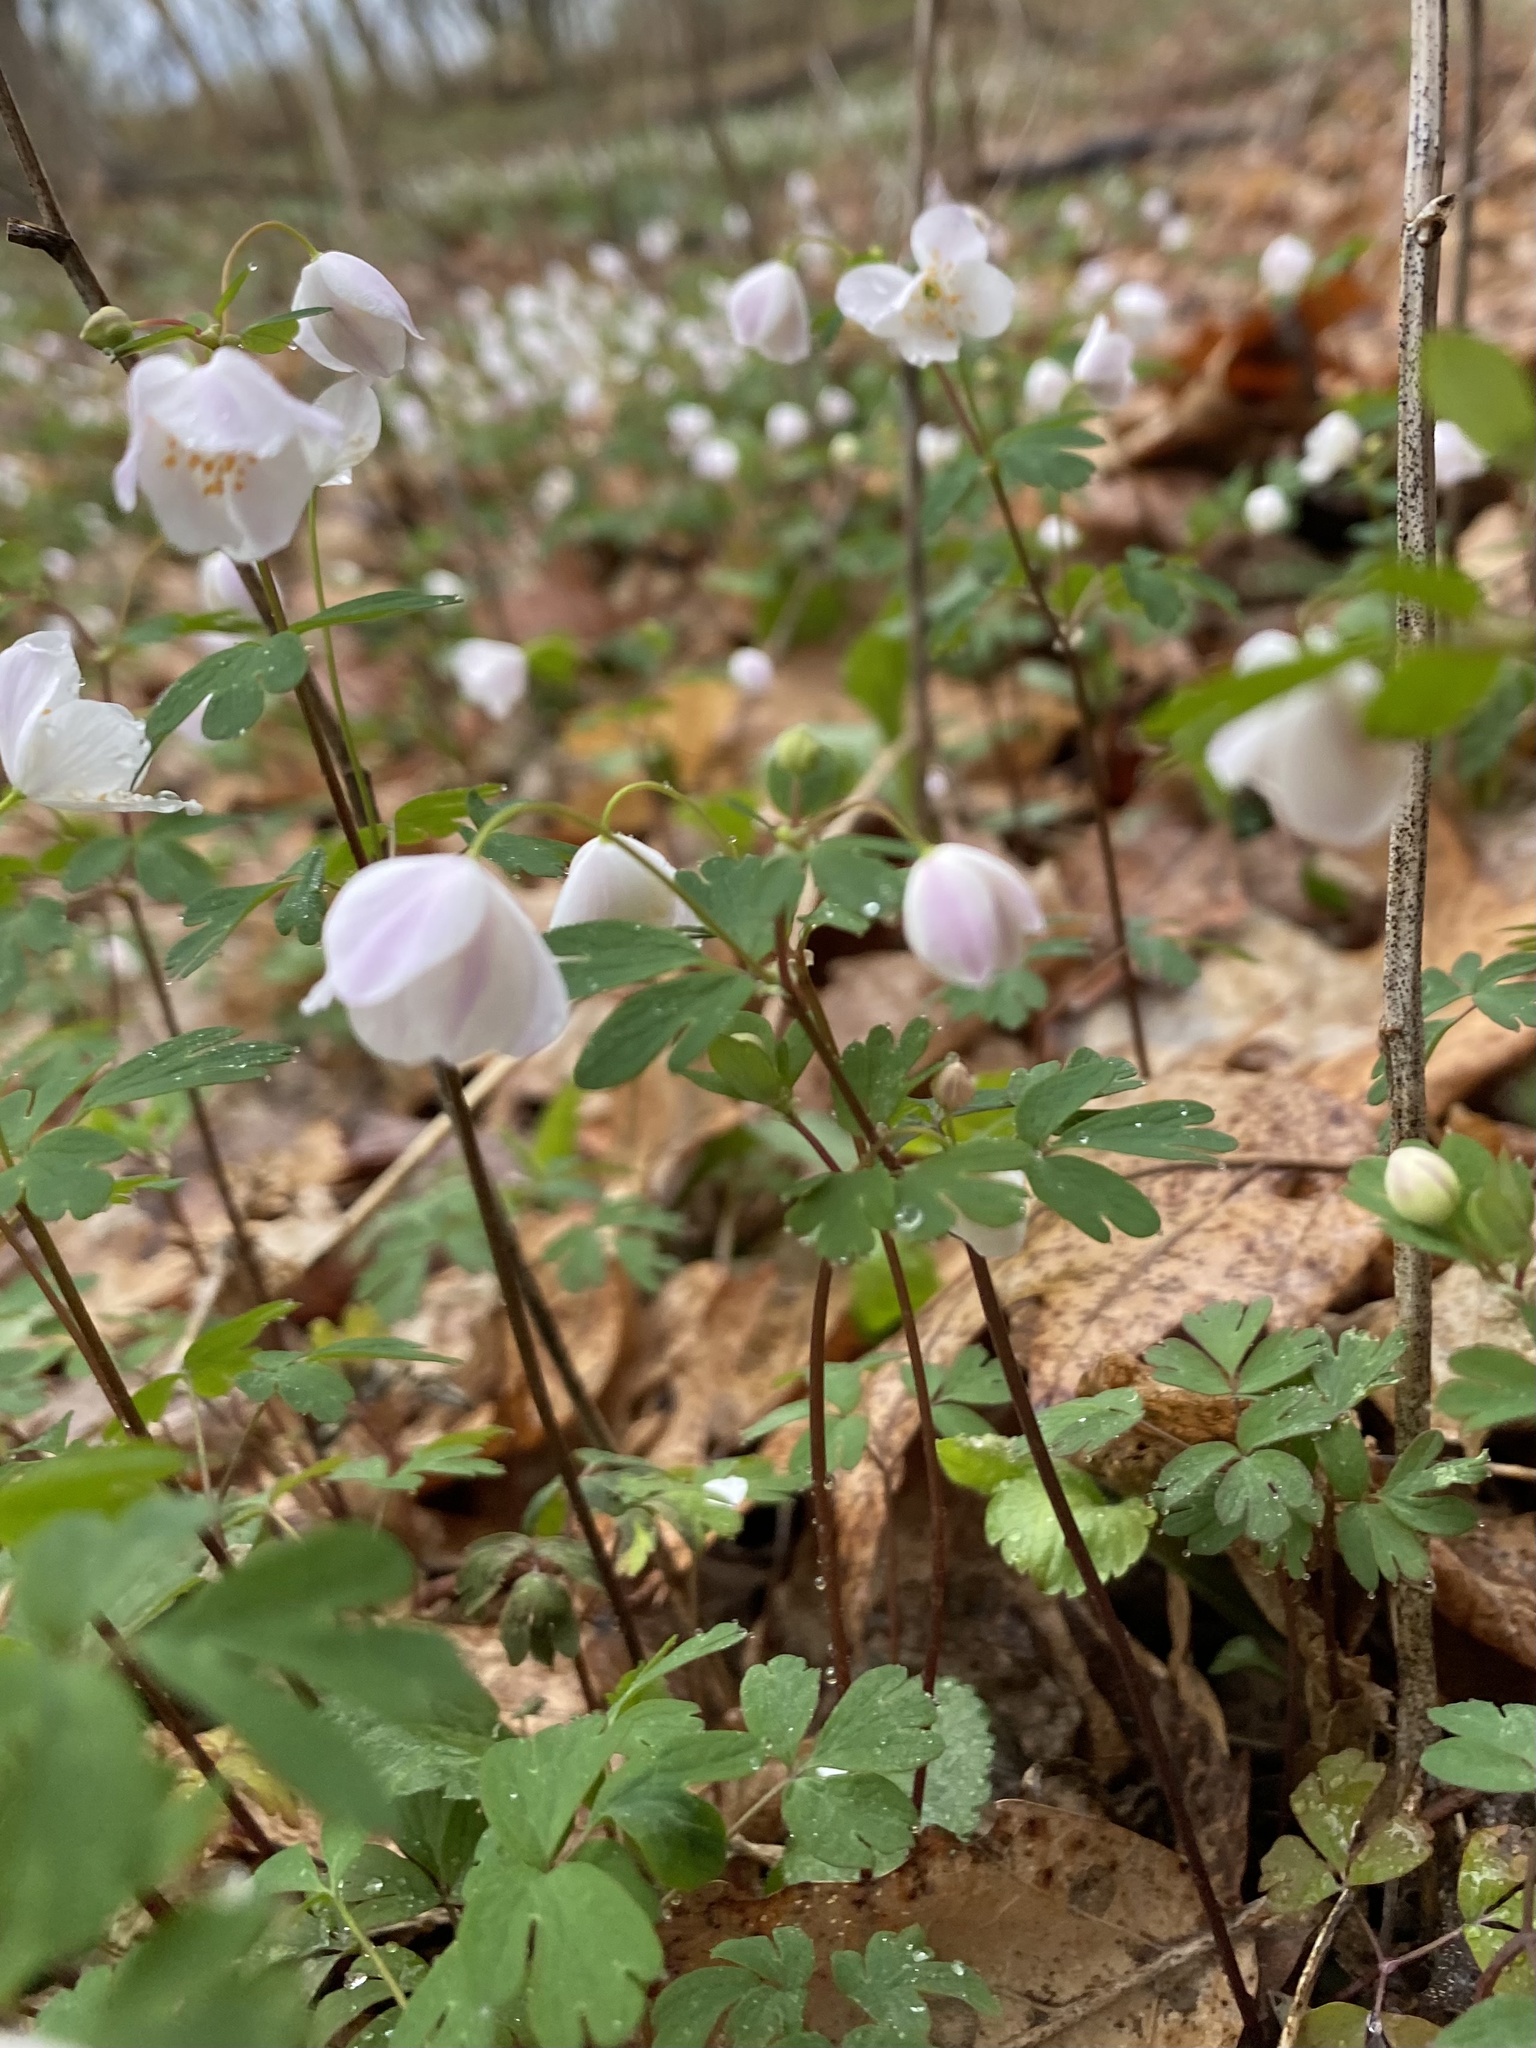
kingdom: Plantae
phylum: Tracheophyta
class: Magnoliopsida
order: Ranunculales
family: Ranunculaceae
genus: Enemion
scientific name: Enemion biternatum
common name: Eastern false rue-anemone
